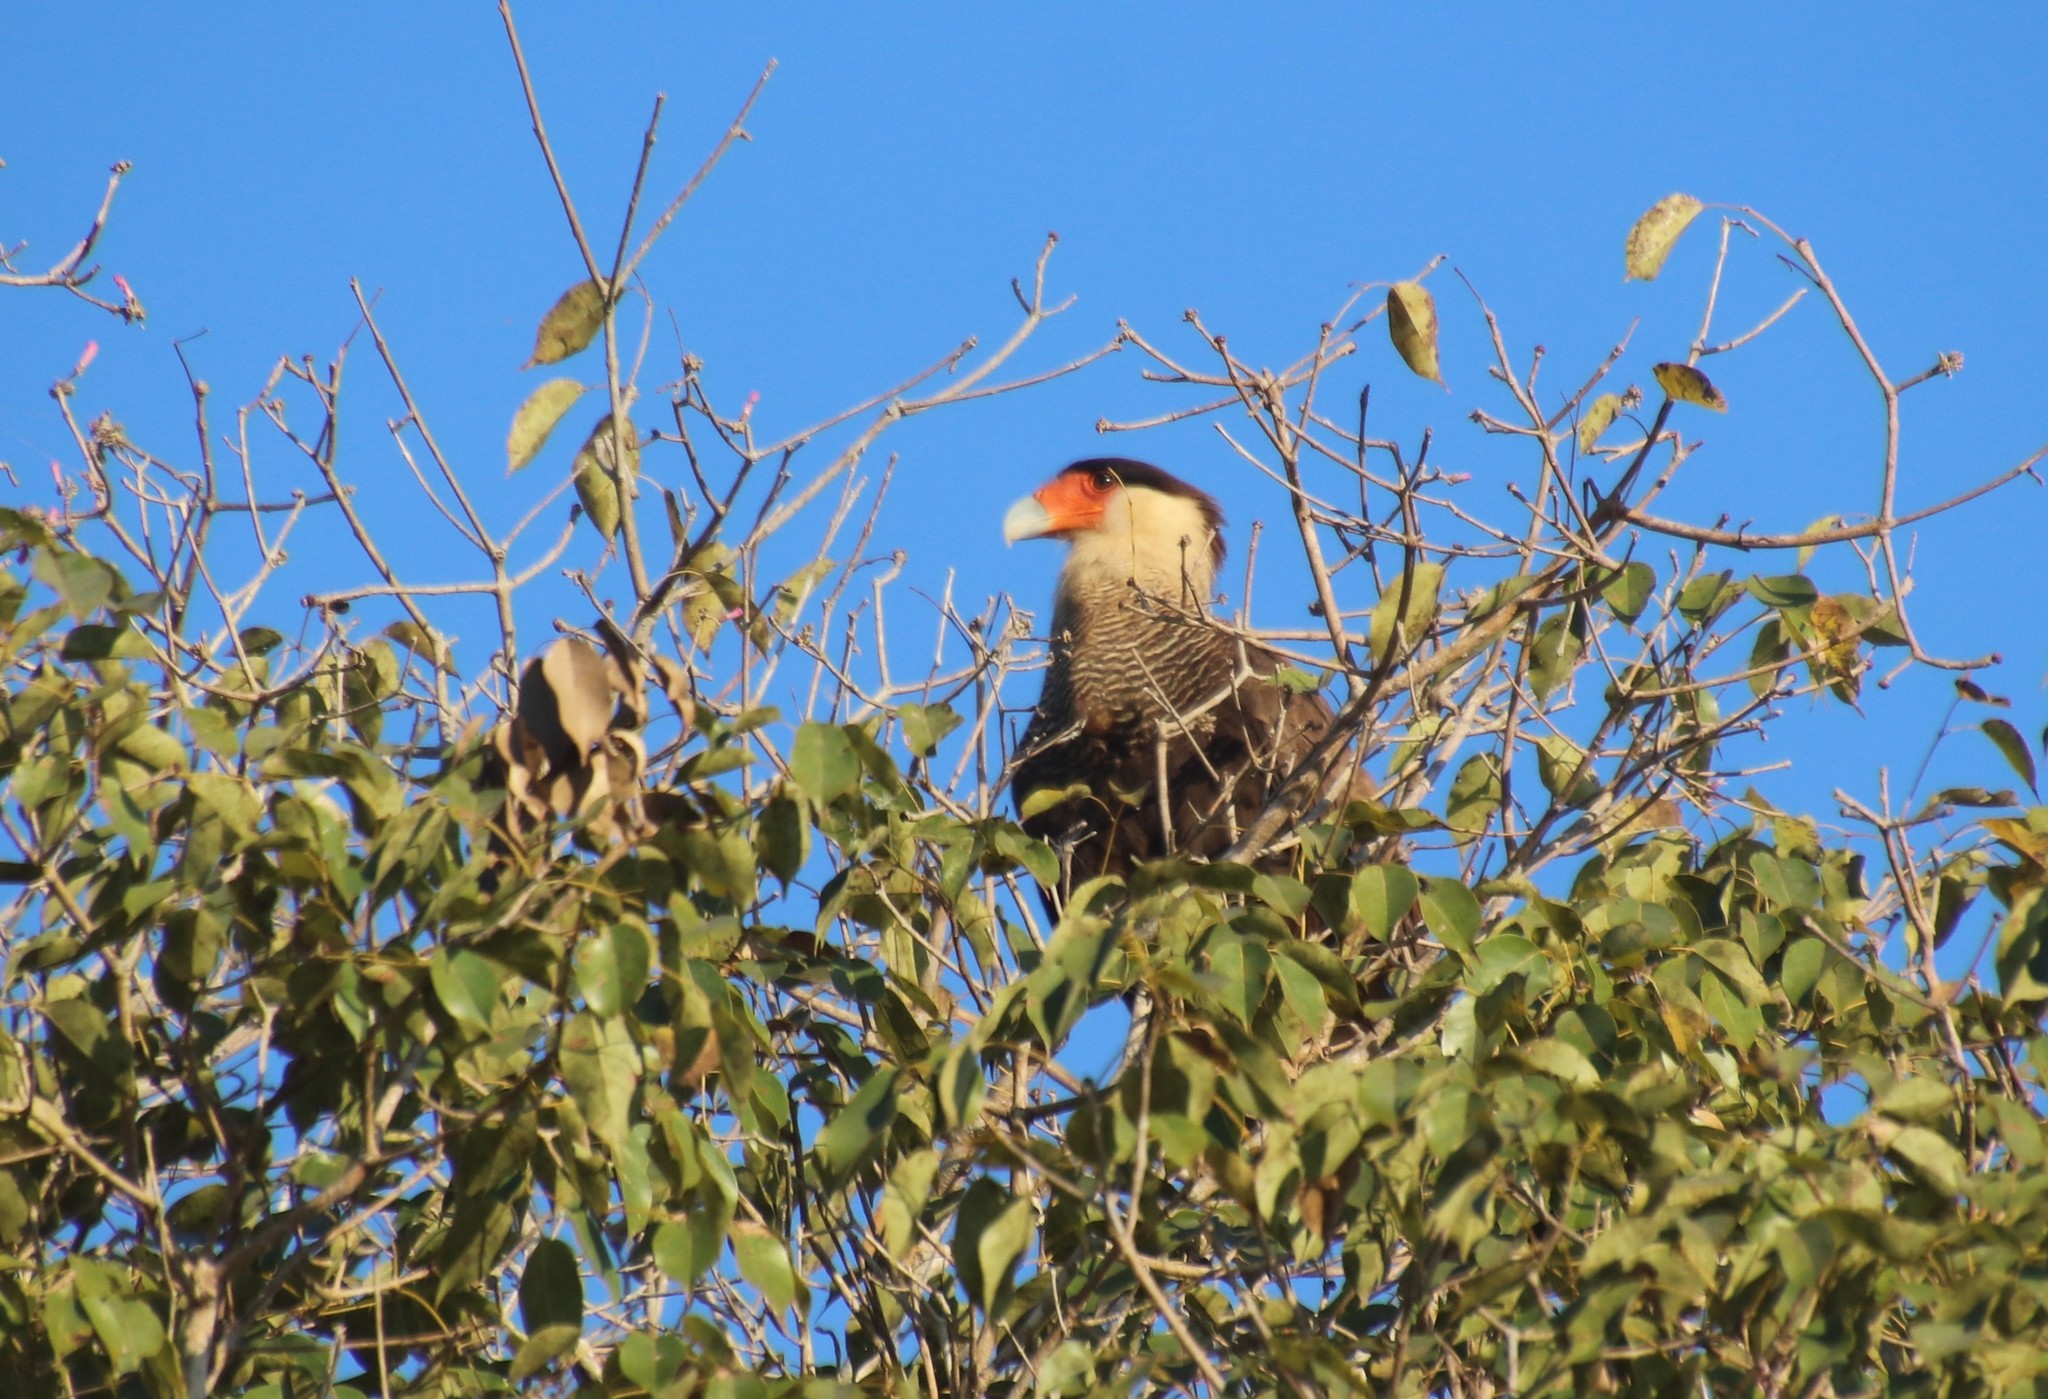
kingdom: Animalia
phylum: Chordata
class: Aves
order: Falconiformes
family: Falconidae
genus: Caracara
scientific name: Caracara plancus
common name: Southern caracara
